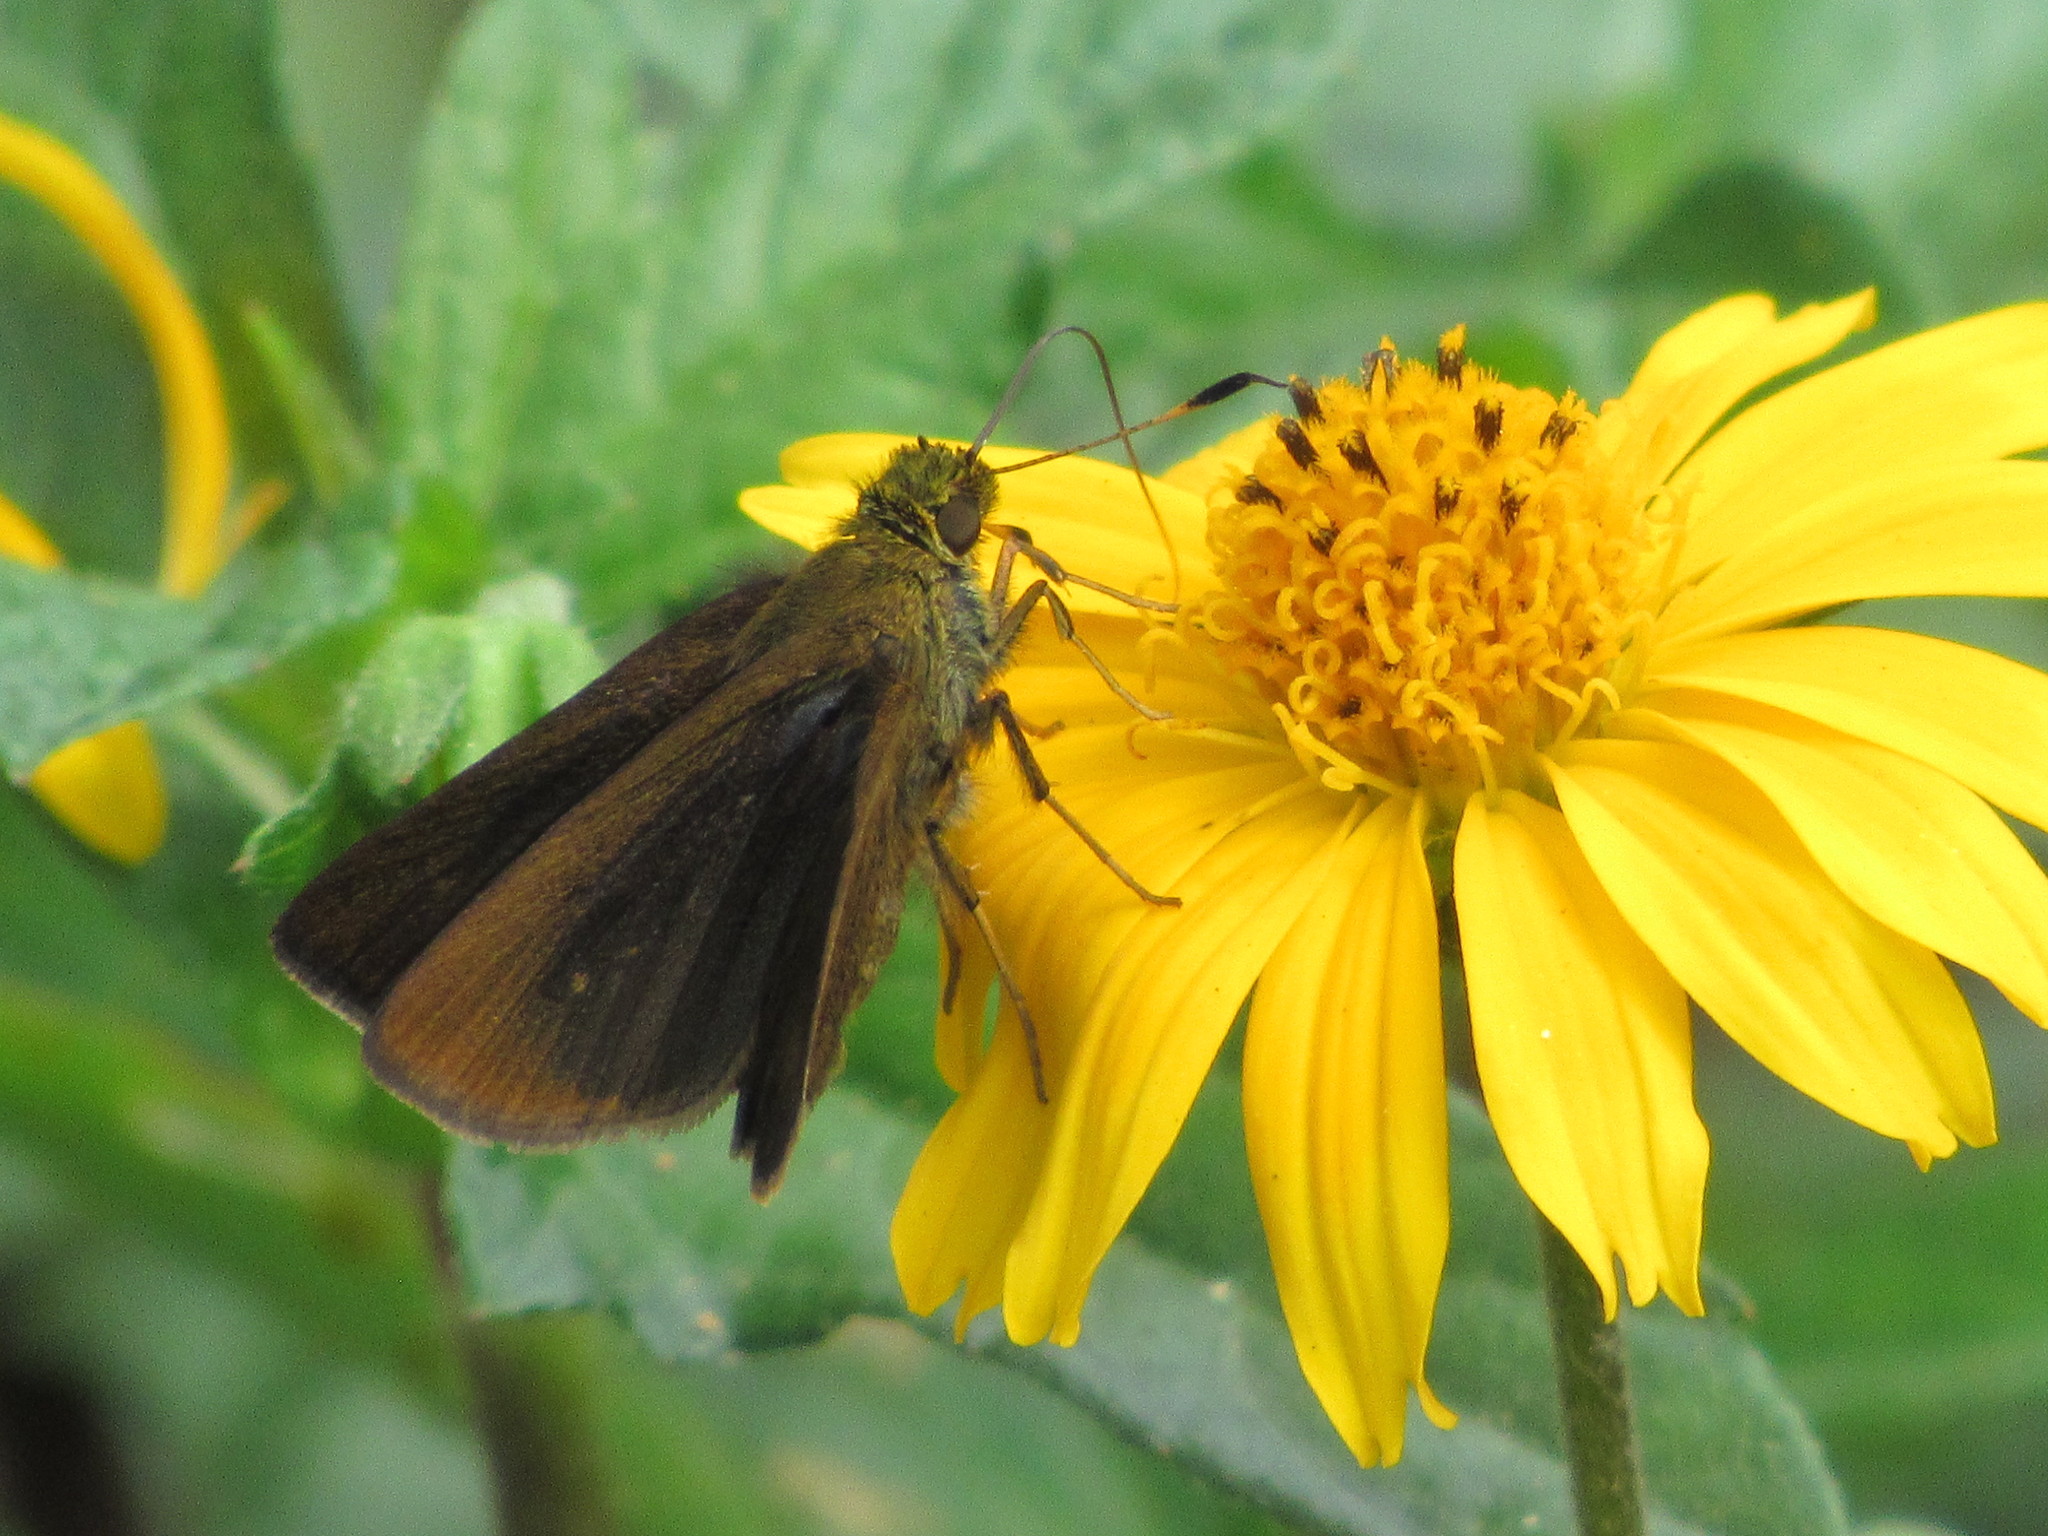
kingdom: Animalia
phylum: Arthropoda
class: Insecta
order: Lepidoptera
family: Hesperiidae
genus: Miltomiges
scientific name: Miltomiges cinnamomea
